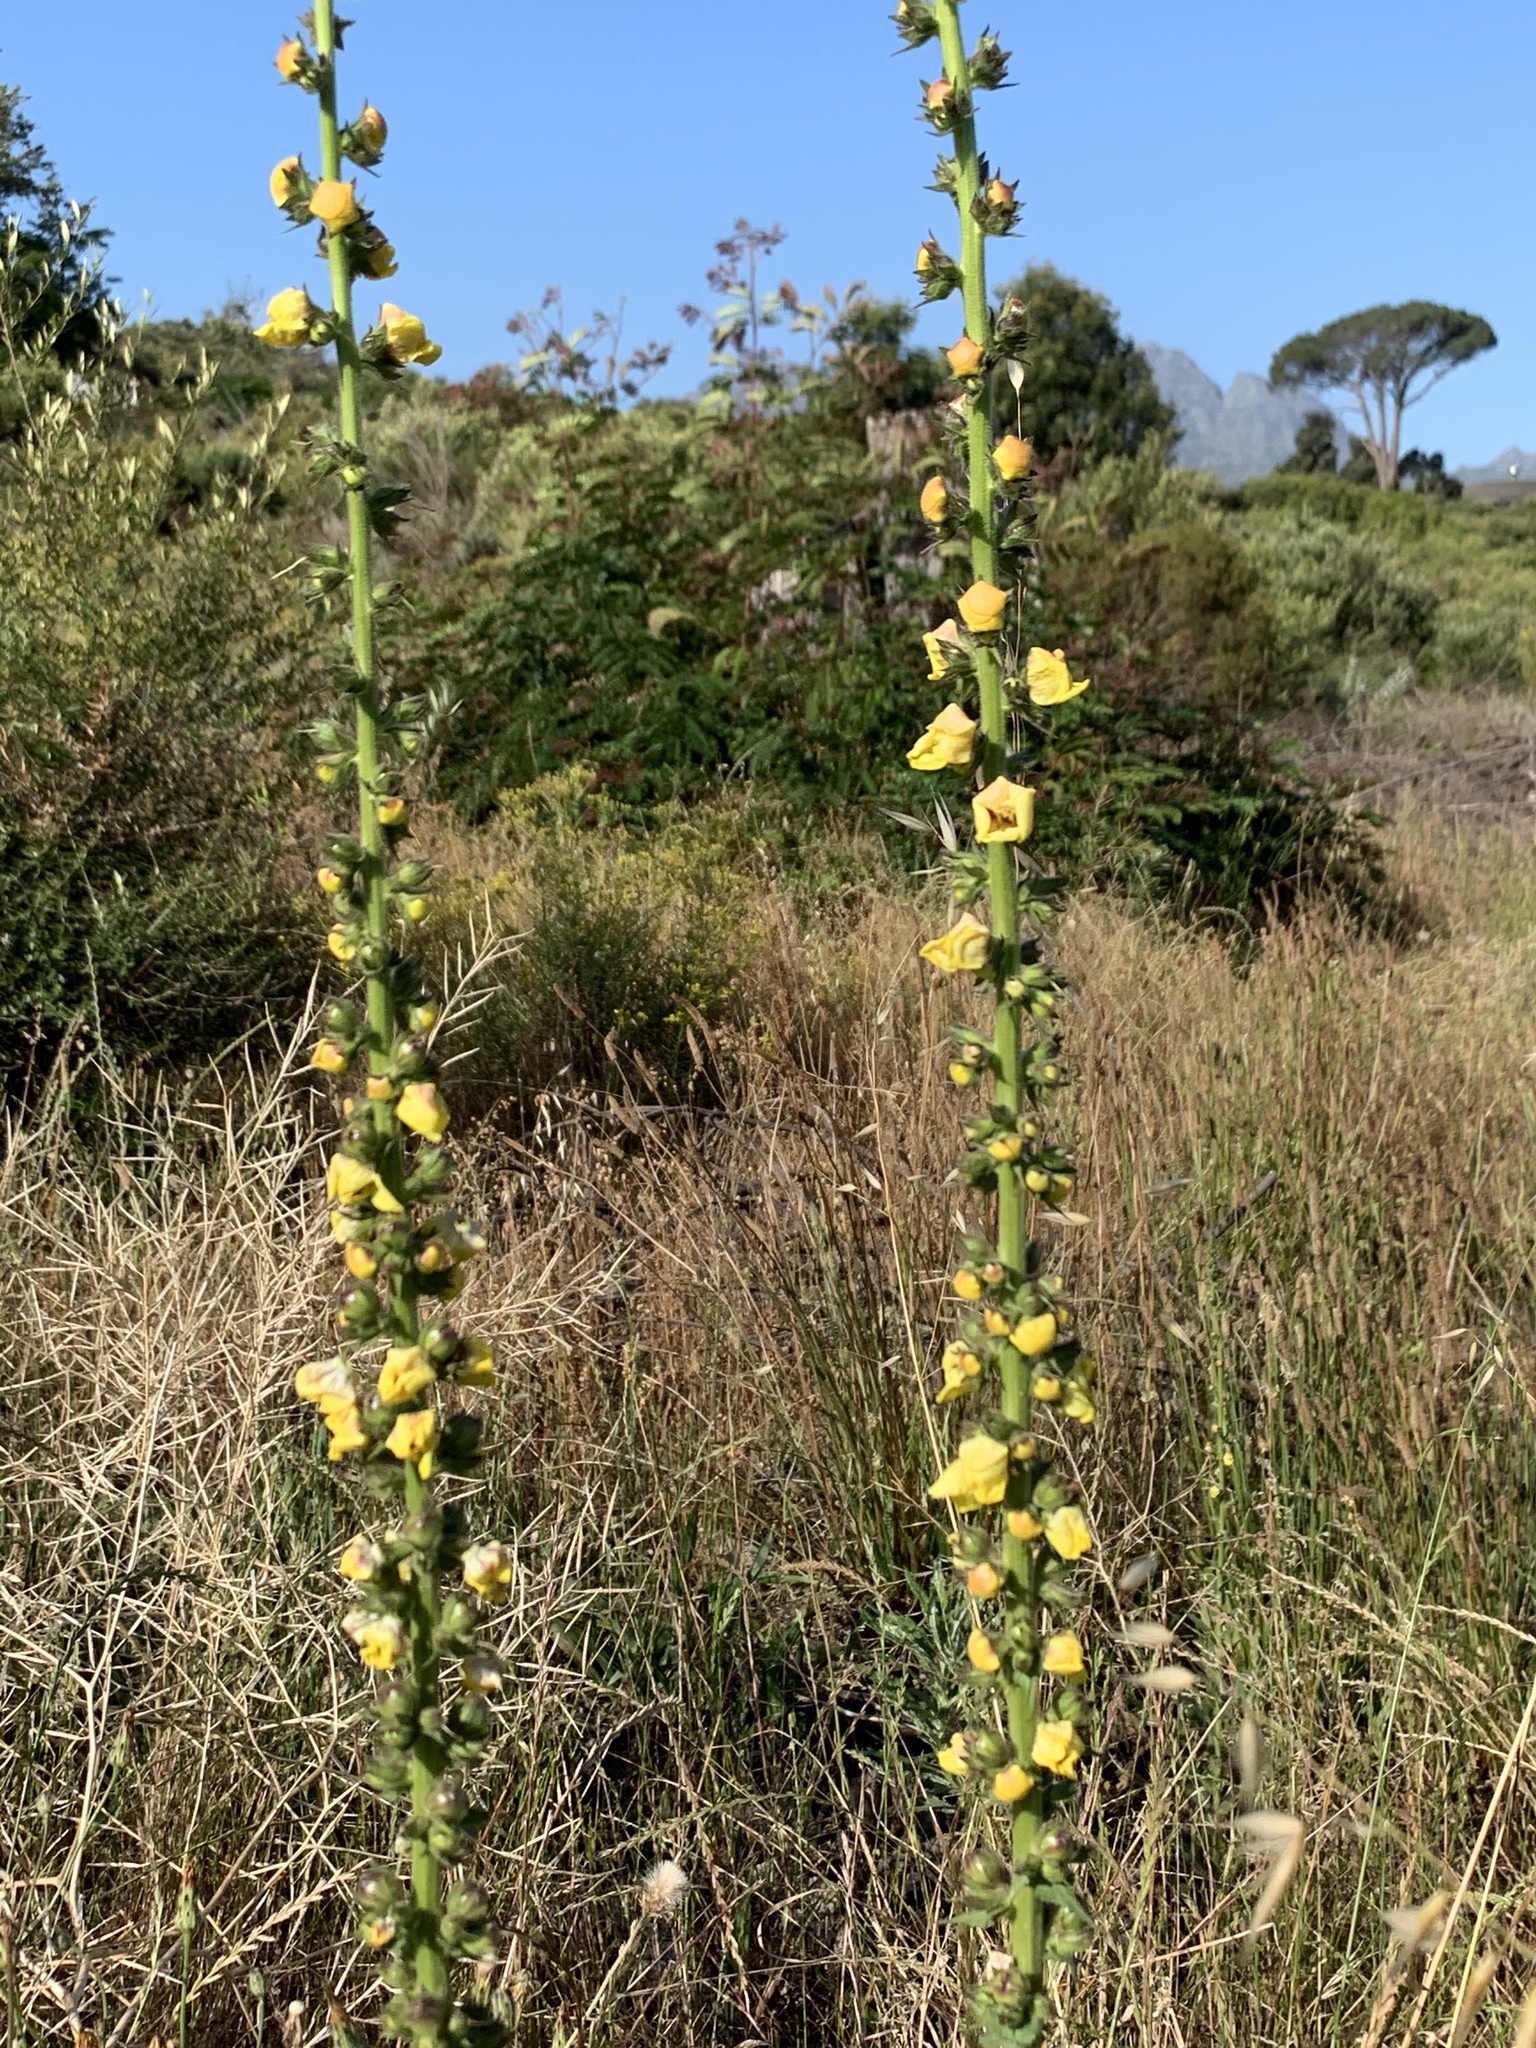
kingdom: Plantae
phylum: Tracheophyta
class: Magnoliopsida
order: Lamiales
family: Scrophulariaceae
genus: Verbascum
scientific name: Verbascum virgatum
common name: Twiggy mullein
